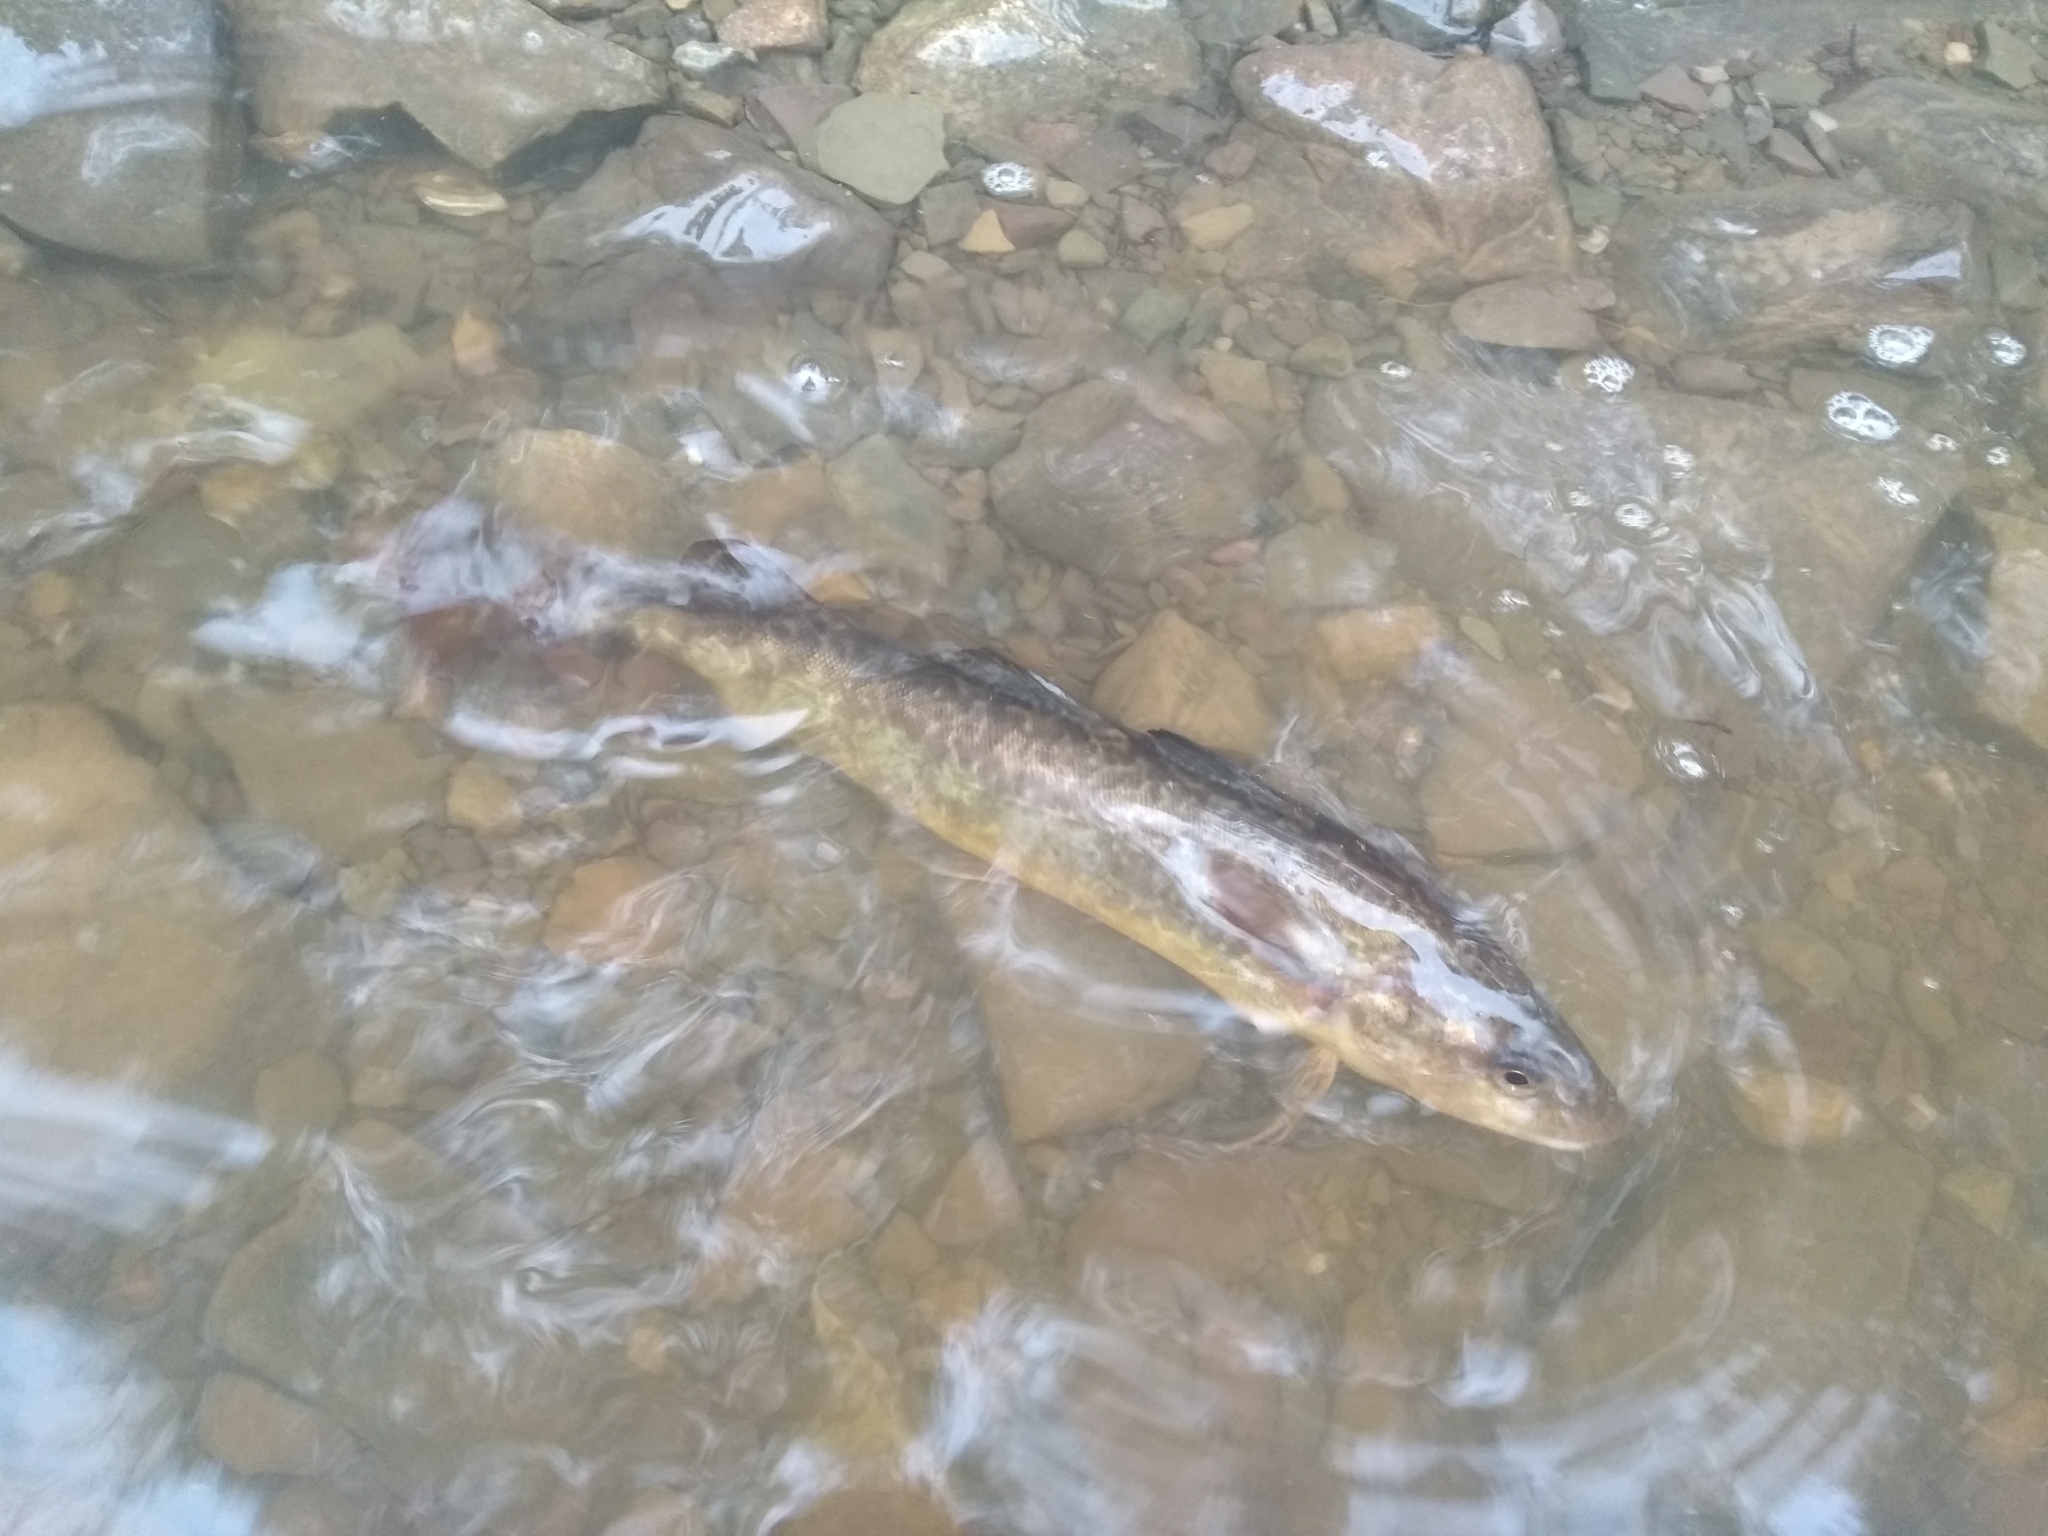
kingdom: Animalia
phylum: Chordata
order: Gadiformes
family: Gadidae
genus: Microgadus
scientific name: Microgadus tomcod
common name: Atlantic tomcod
